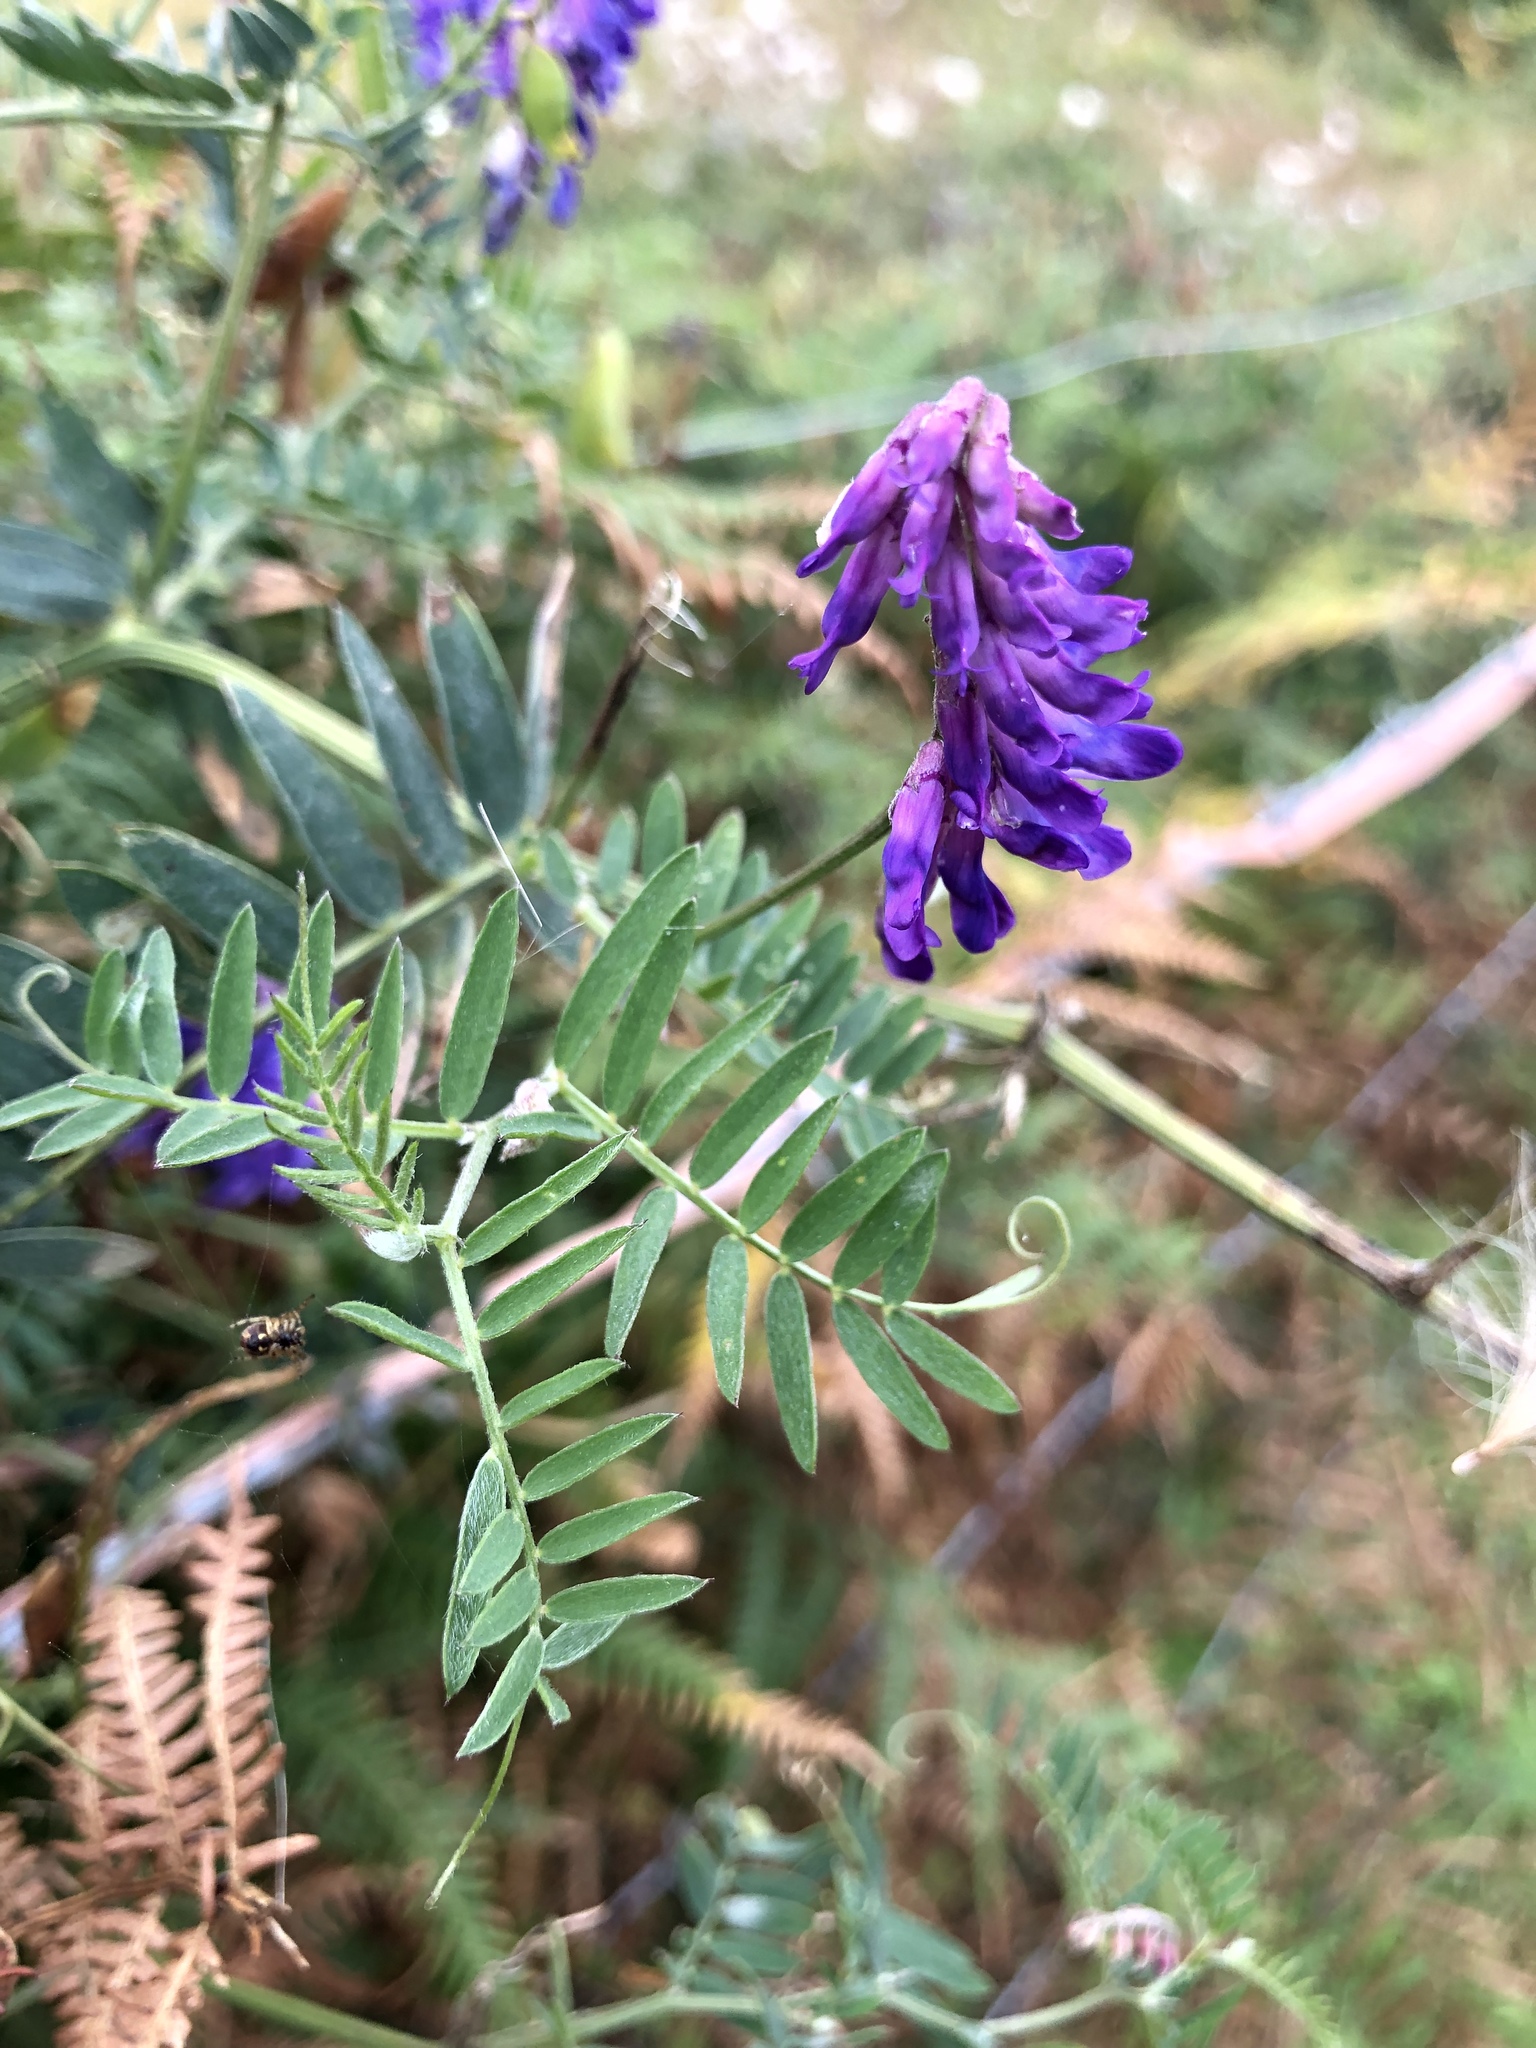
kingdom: Plantae
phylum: Tracheophyta
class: Magnoliopsida
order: Fabales
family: Fabaceae
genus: Vicia
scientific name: Vicia cracca
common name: Bird vetch
